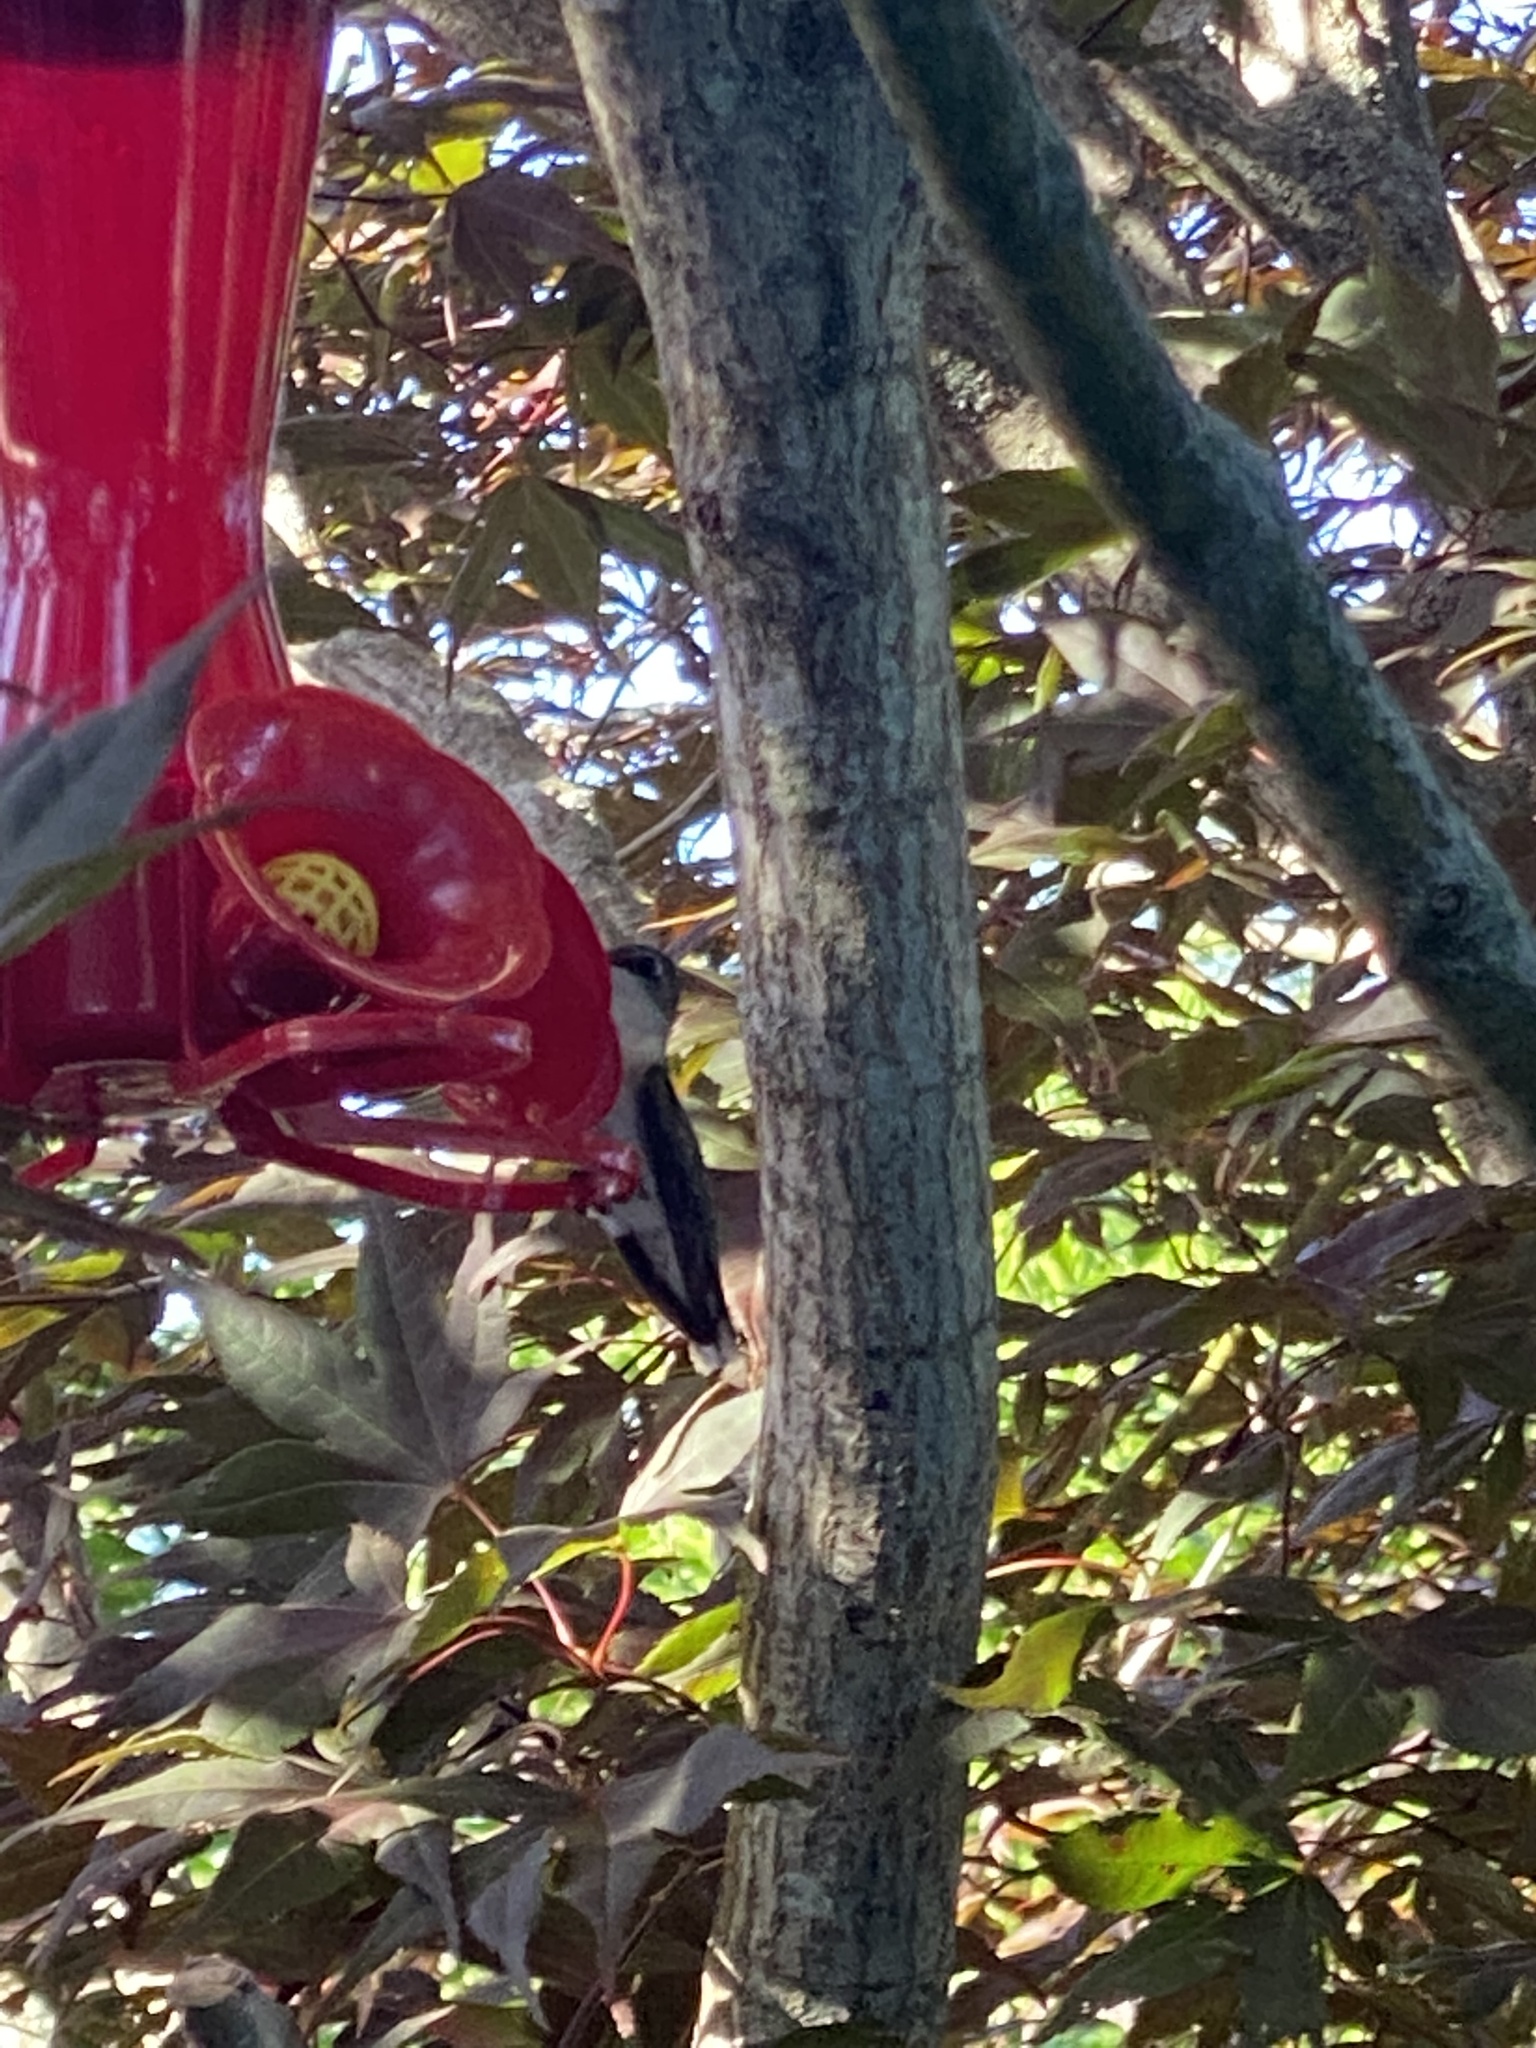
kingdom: Animalia
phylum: Chordata
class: Aves
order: Apodiformes
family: Trochilidae
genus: Archilochus
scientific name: Archilochus colubris
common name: Ruby-throated hummingbird
